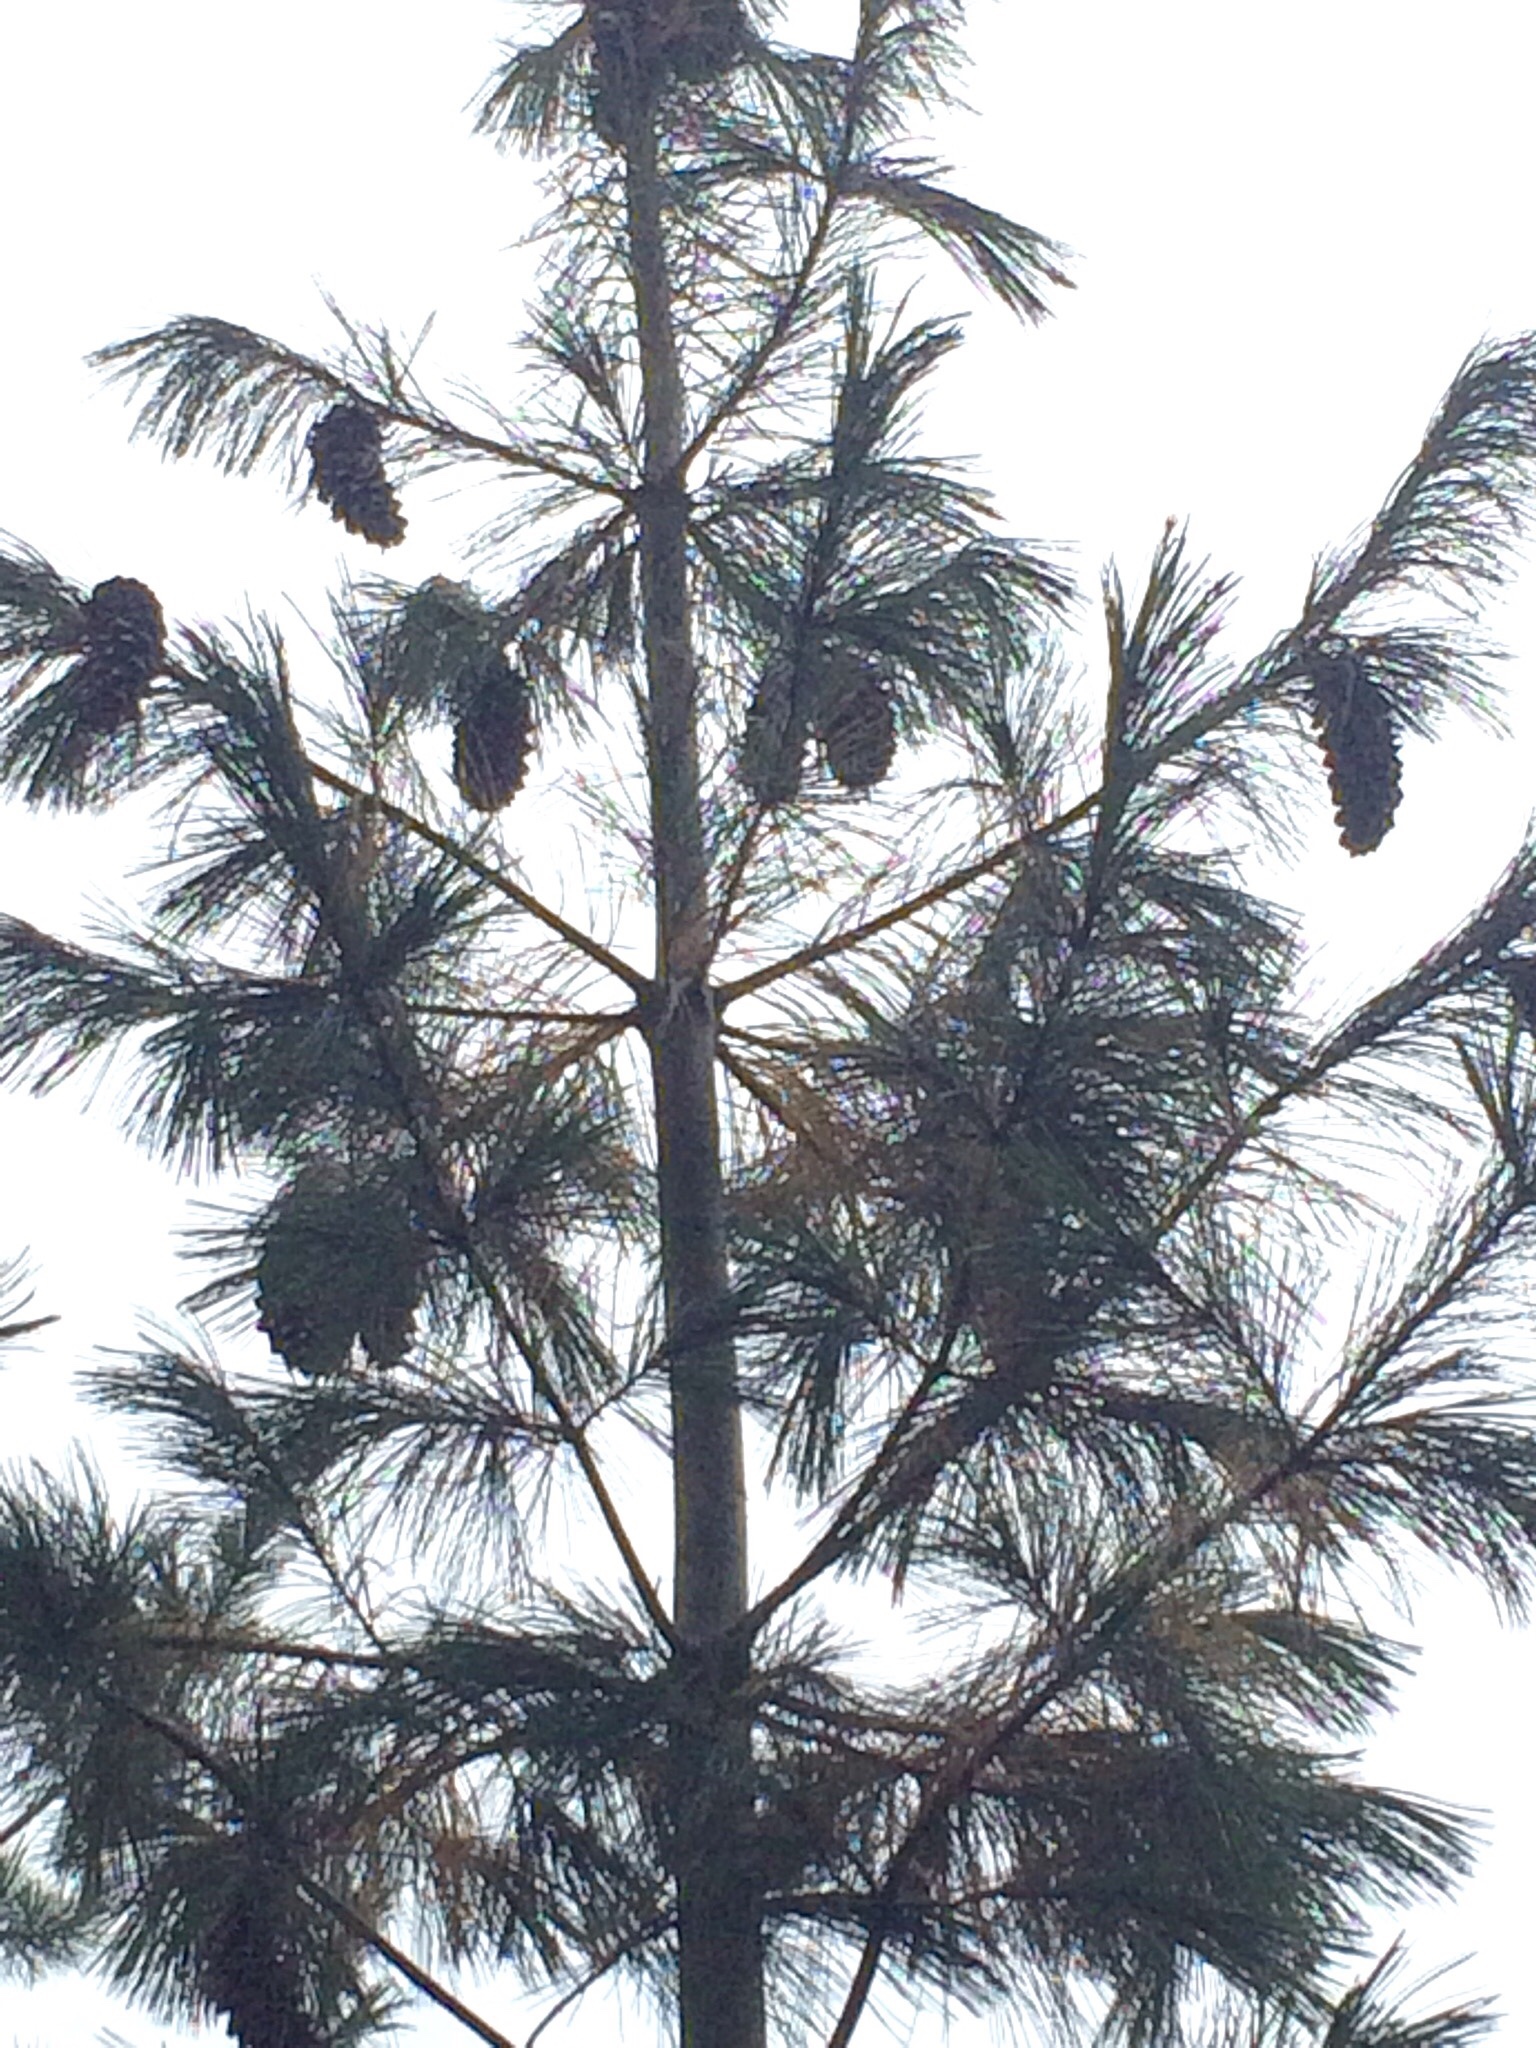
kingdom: Plantae
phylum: Tracheophyta
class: Pinopsida
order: Pinales
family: Pinaceae
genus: Pinus
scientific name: Pinus monticola
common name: Western white pine
